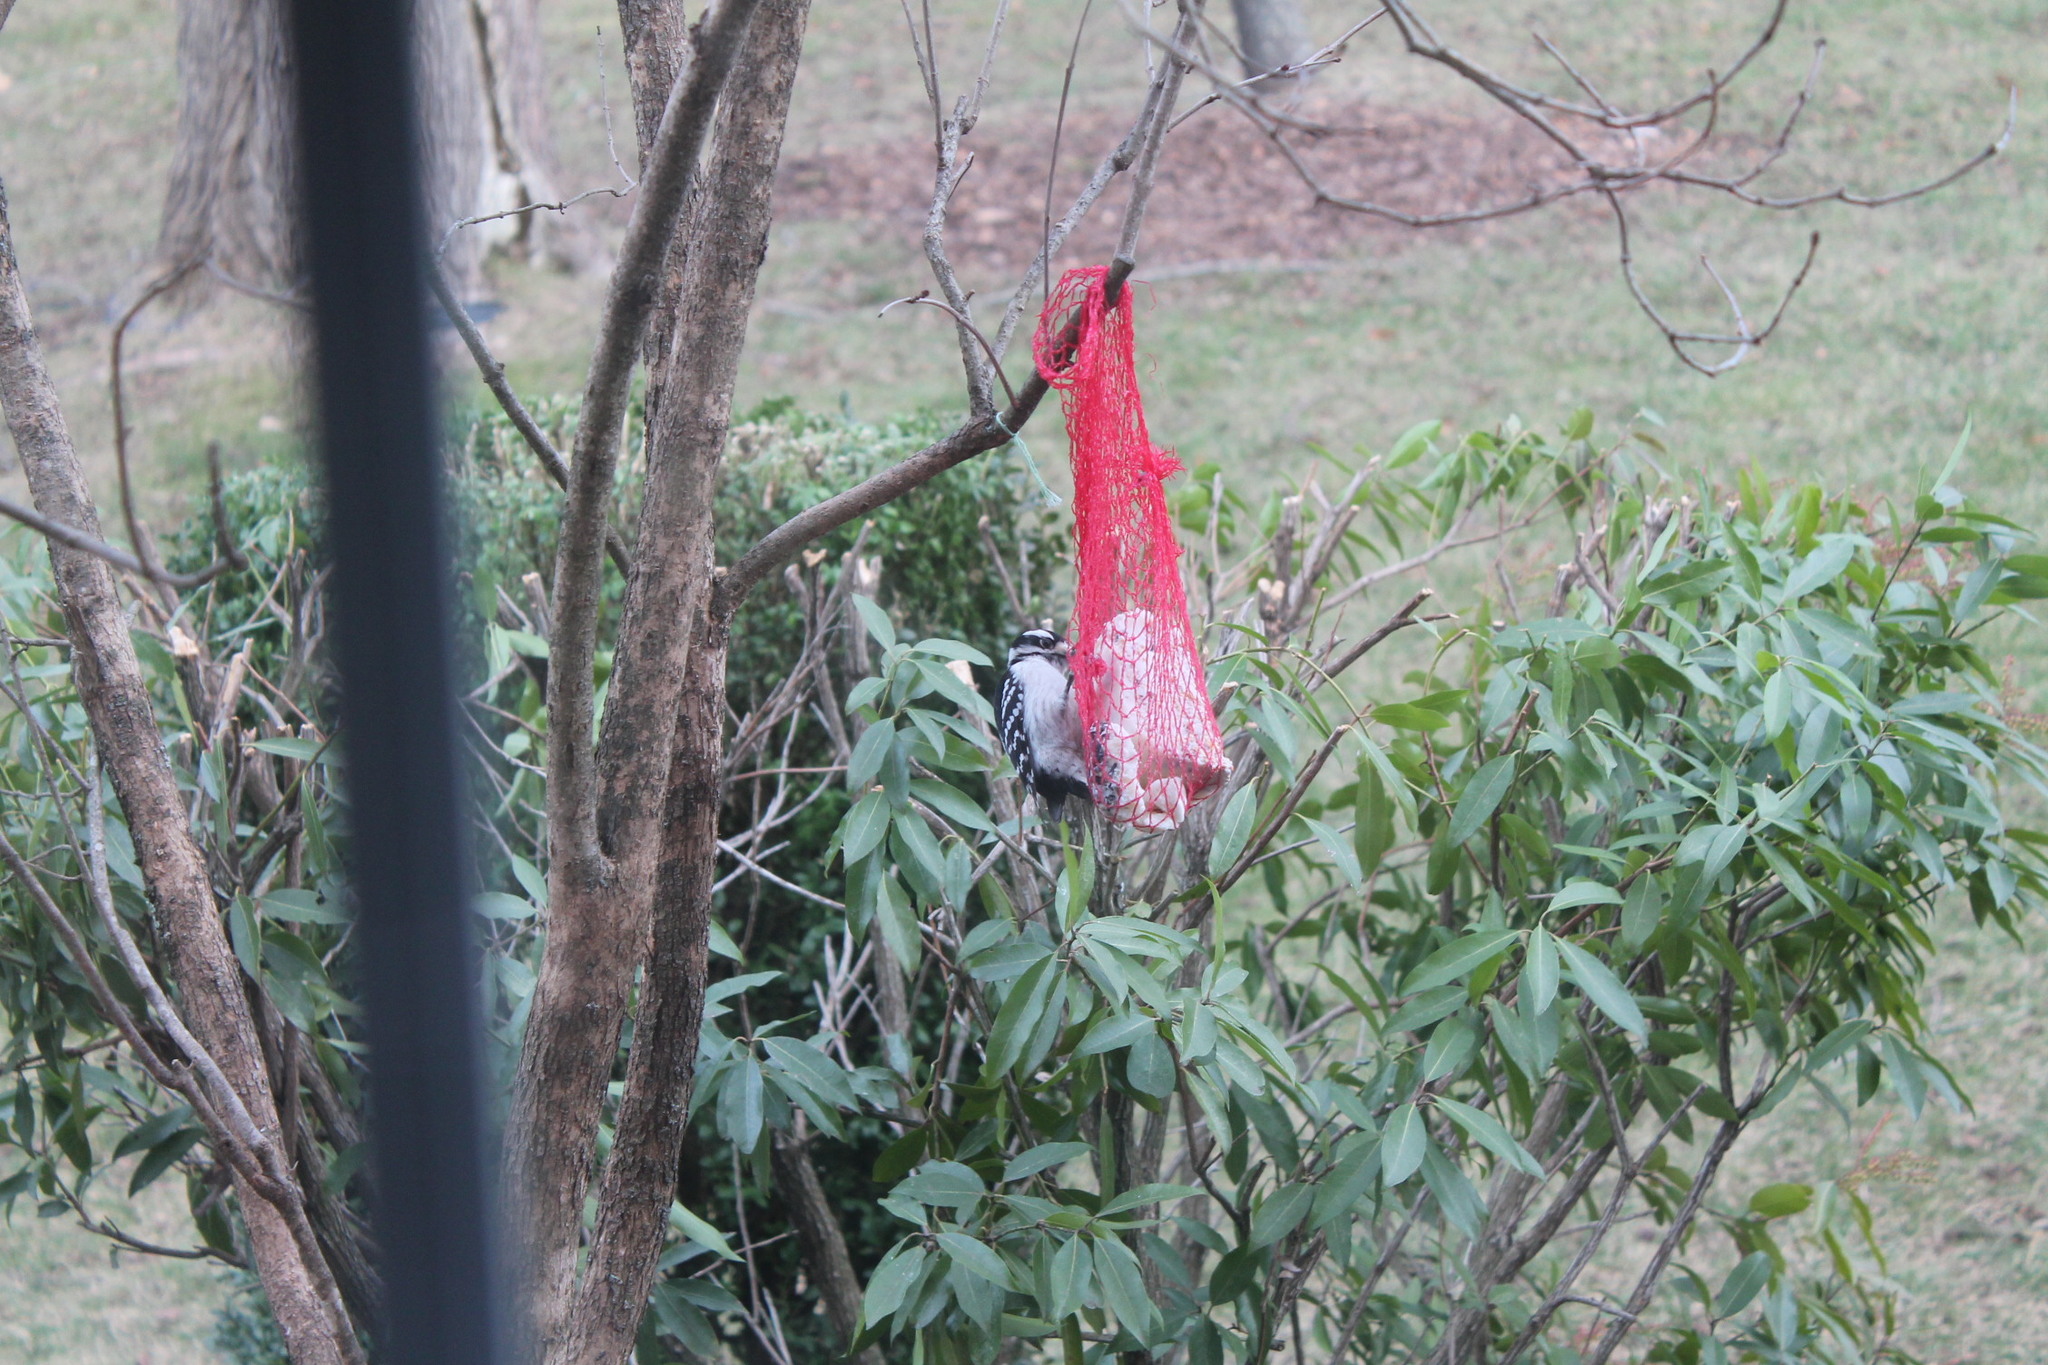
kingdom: Animalia
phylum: Chordata
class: Aves
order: Piciformes
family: Picidae
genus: Dryobates
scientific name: Dryobates pubescens
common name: Downy woodpecker
